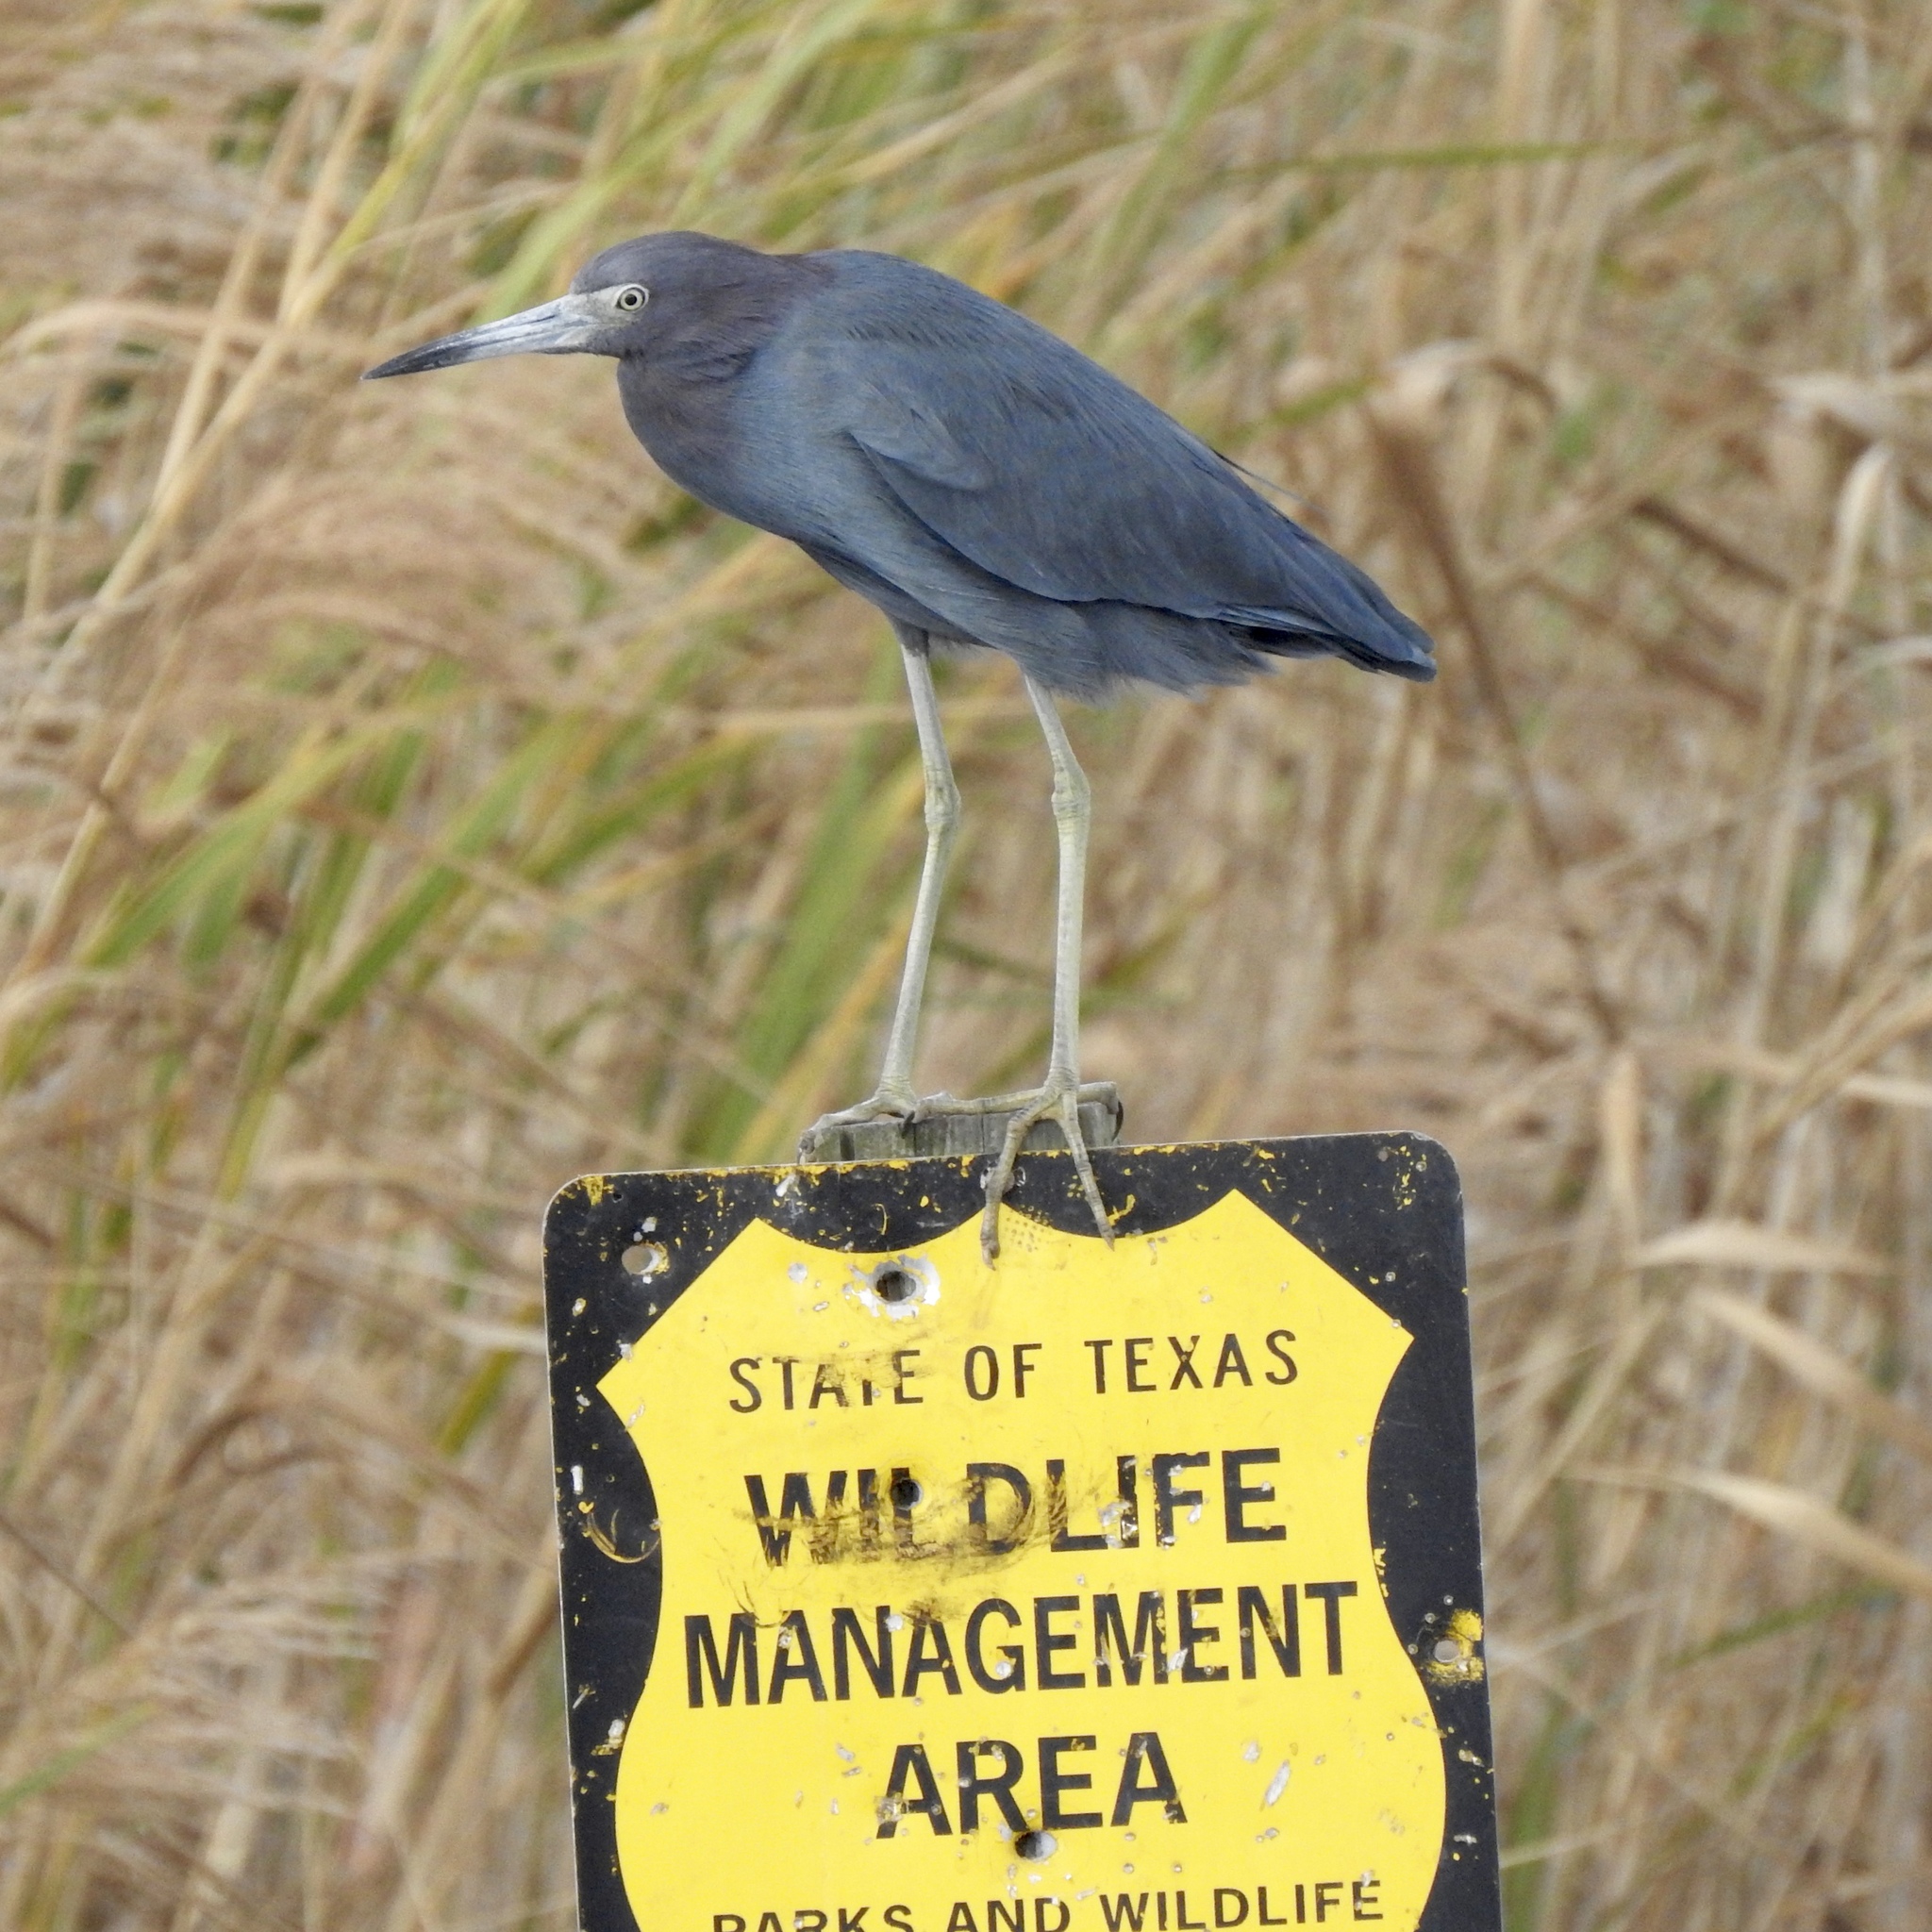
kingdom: Animalia
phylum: Chordata
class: Aves
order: Pelecaniformes
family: Ardeidae
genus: Egretta
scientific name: Egretta caerulea
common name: Little blue heron
